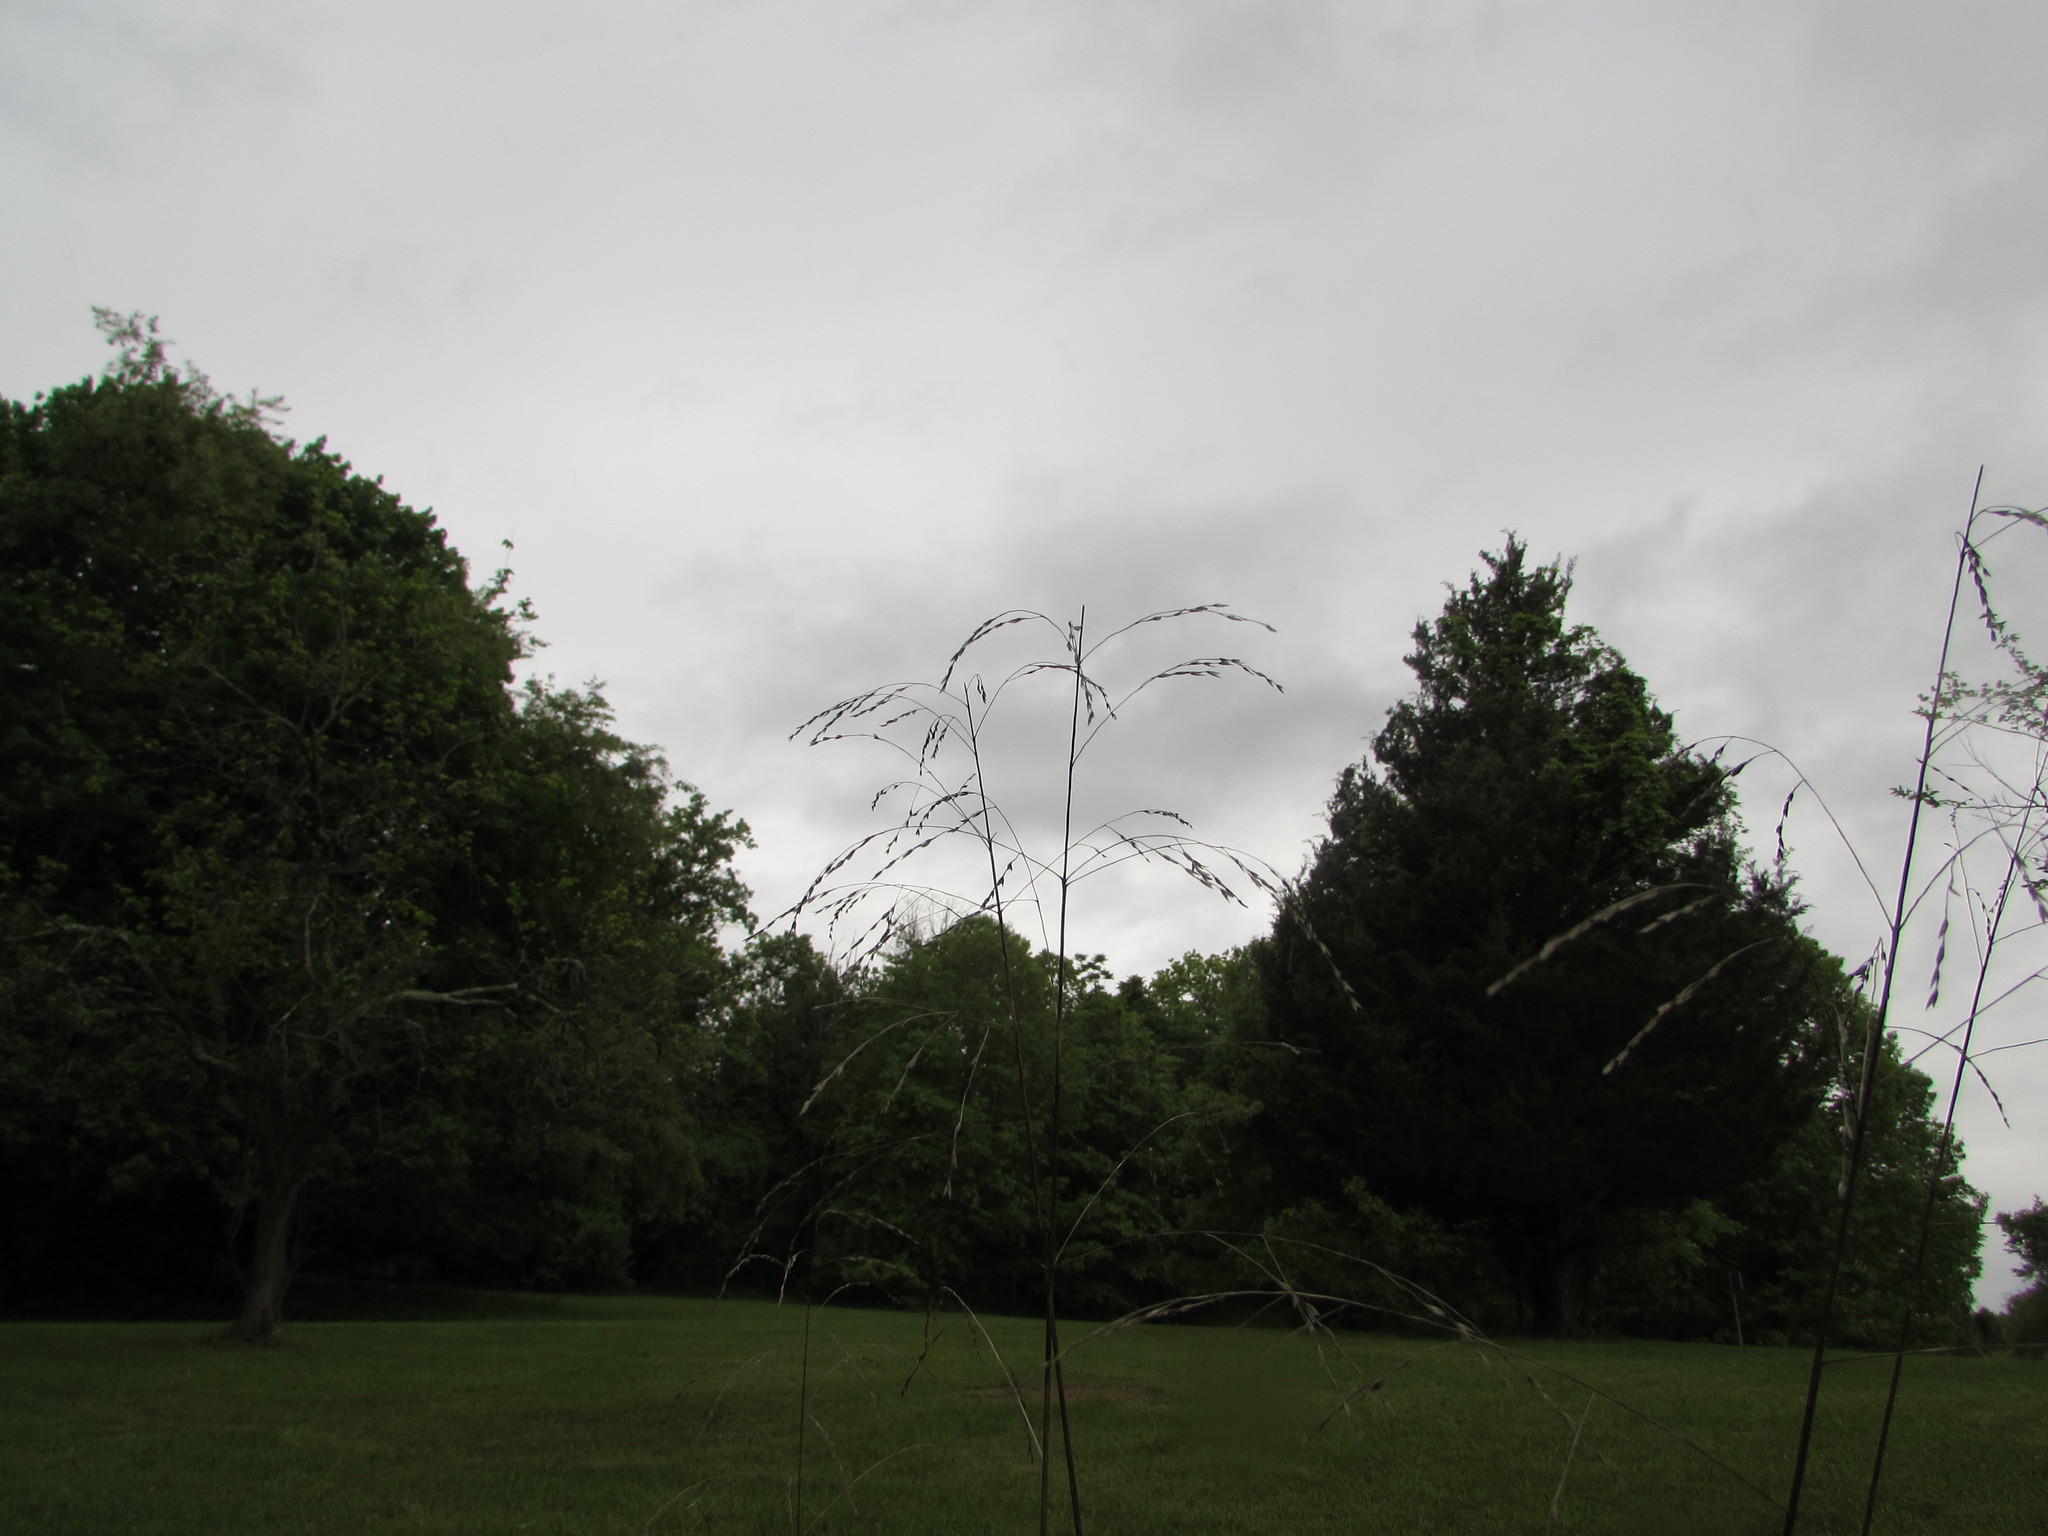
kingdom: Plantae
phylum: Tracheophyta
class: Liliopsida
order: Poales
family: Poaceae
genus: Tridens
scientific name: Tridens flavus
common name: Purpletop
